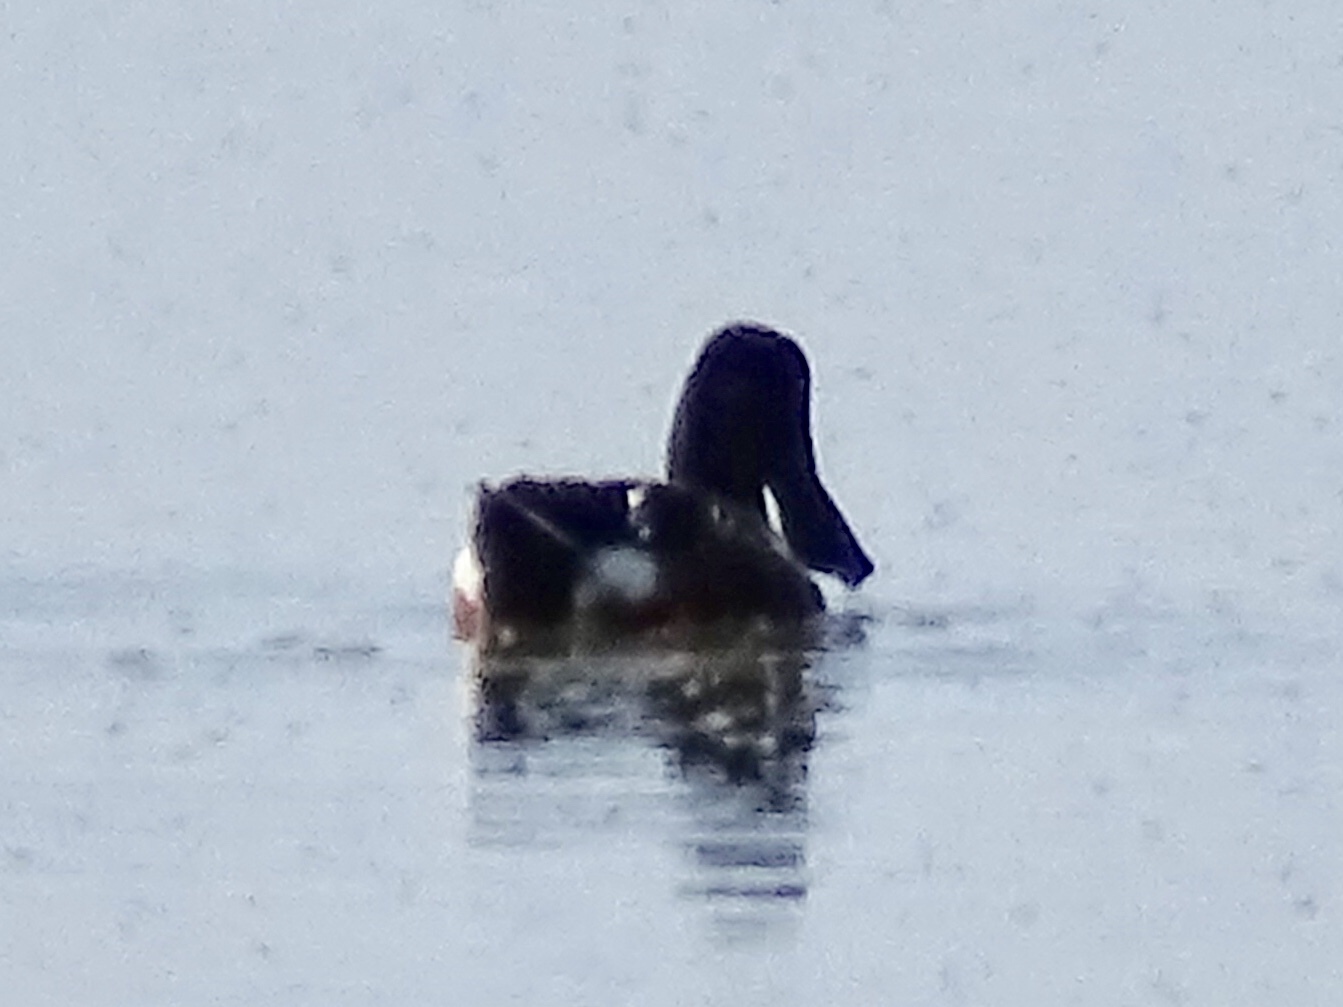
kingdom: Animalia
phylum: Chordata
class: Aves
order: Anseriformes
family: Anatidae
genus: Spatula
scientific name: Spatula clypeata
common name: Northern shoveler
